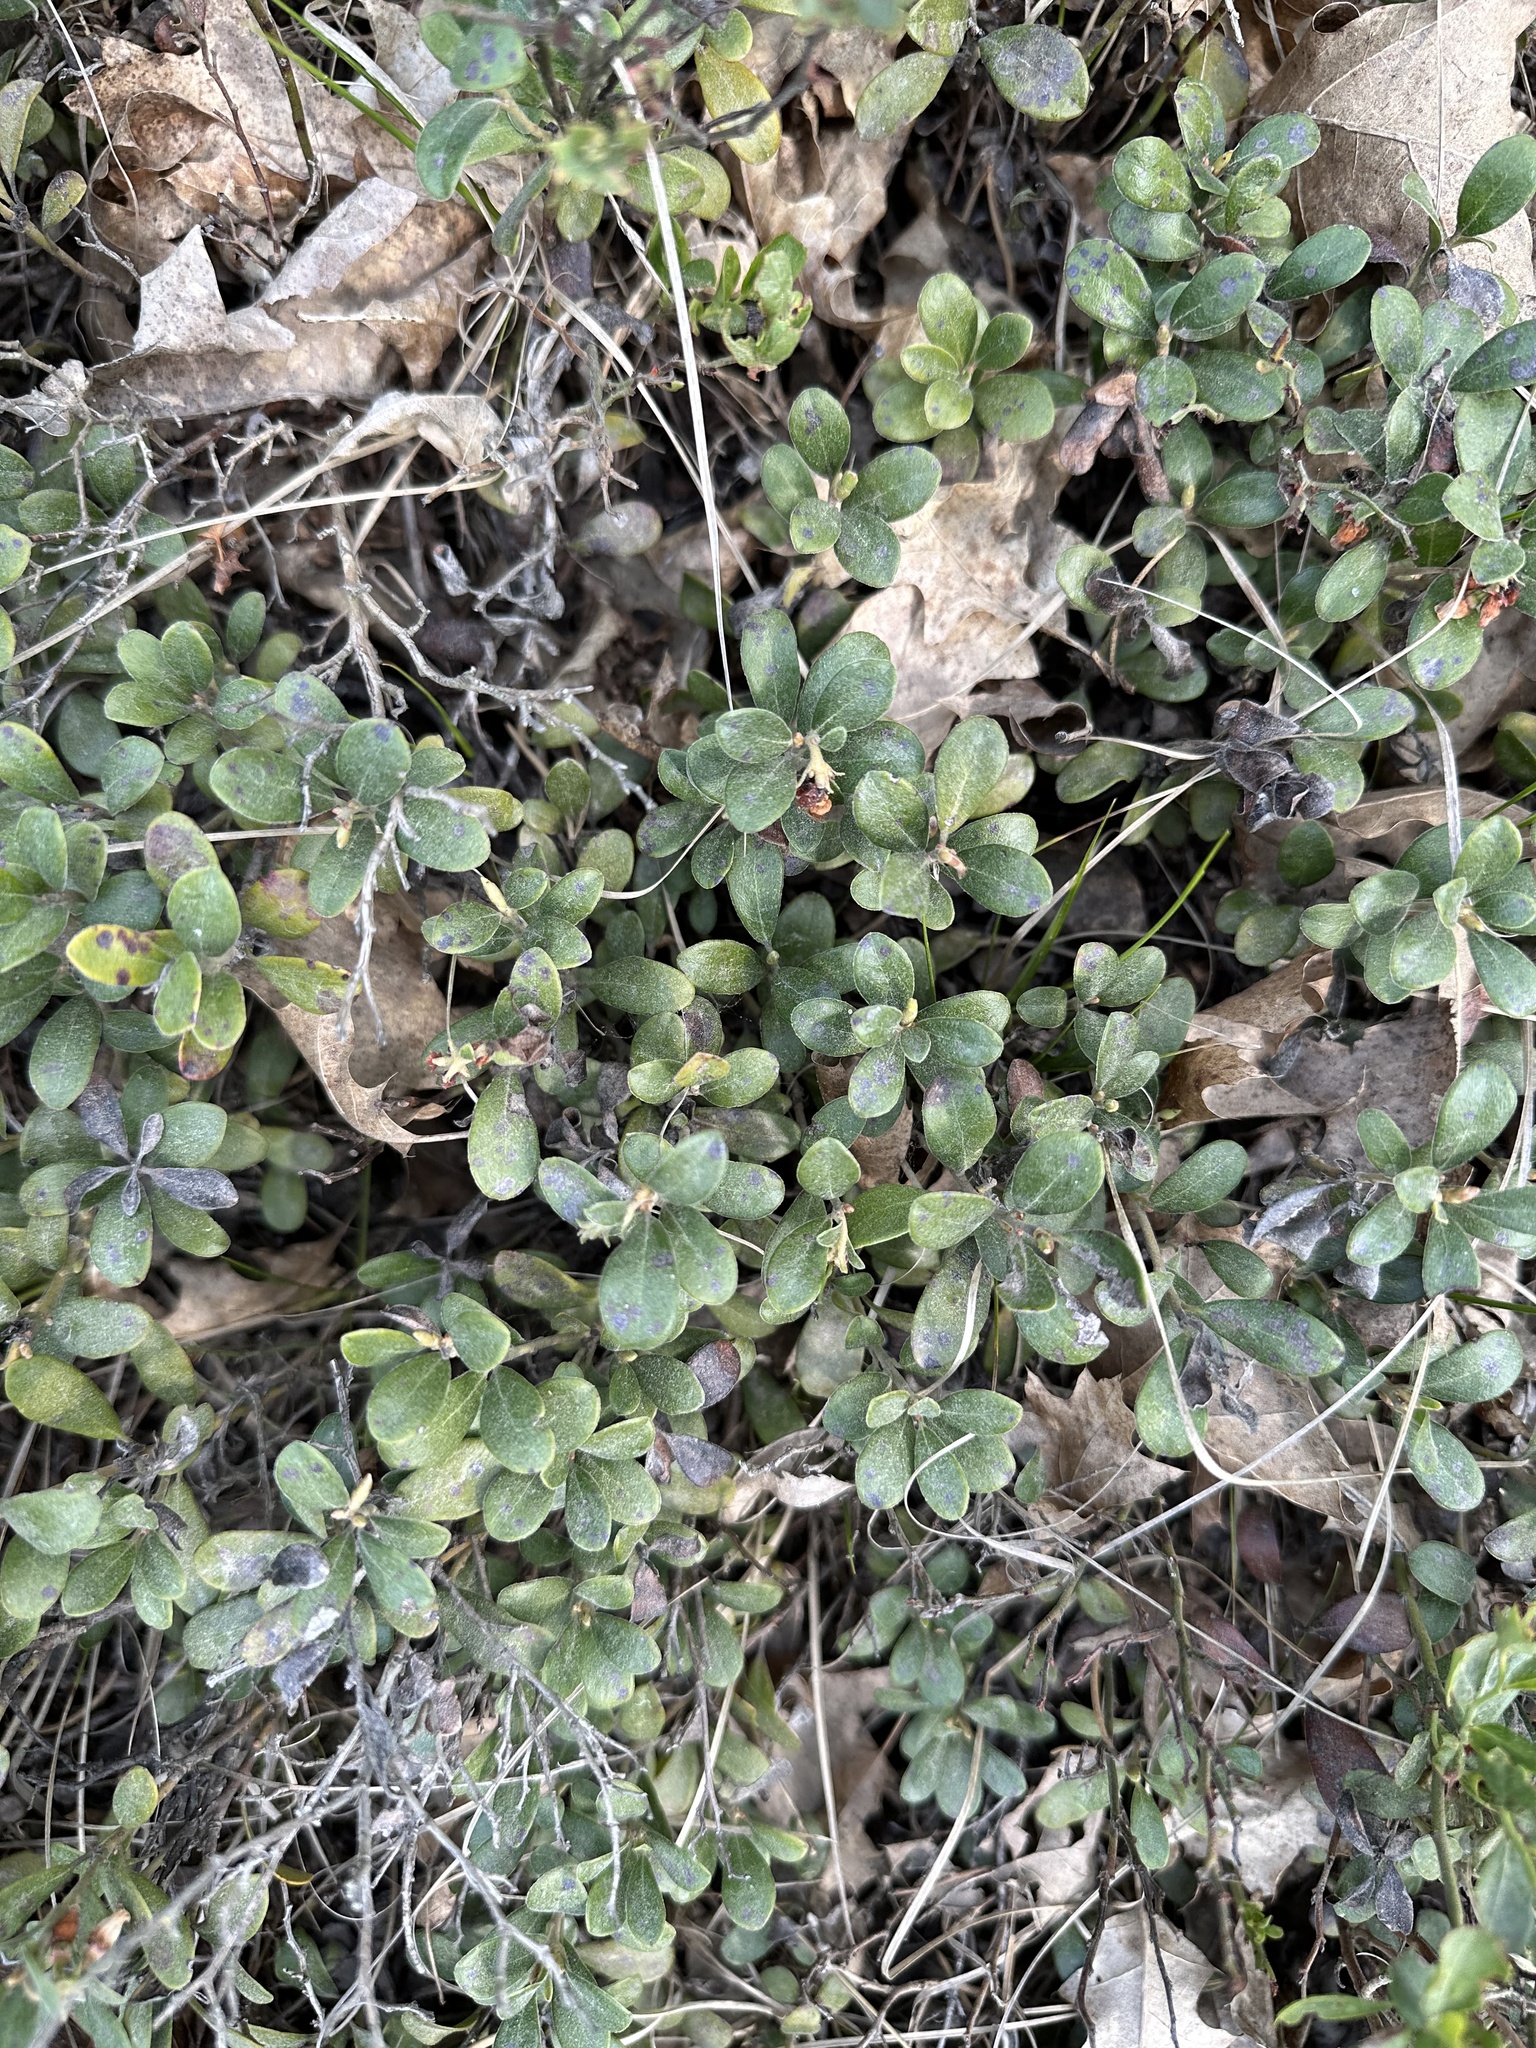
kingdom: Plantae
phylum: Tracheophyta
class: Magnoliopsida
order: Ericales
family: Ericaceae
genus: Arctostaphylos
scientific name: Arctostaphylos uva-ursi
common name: Bearberry
